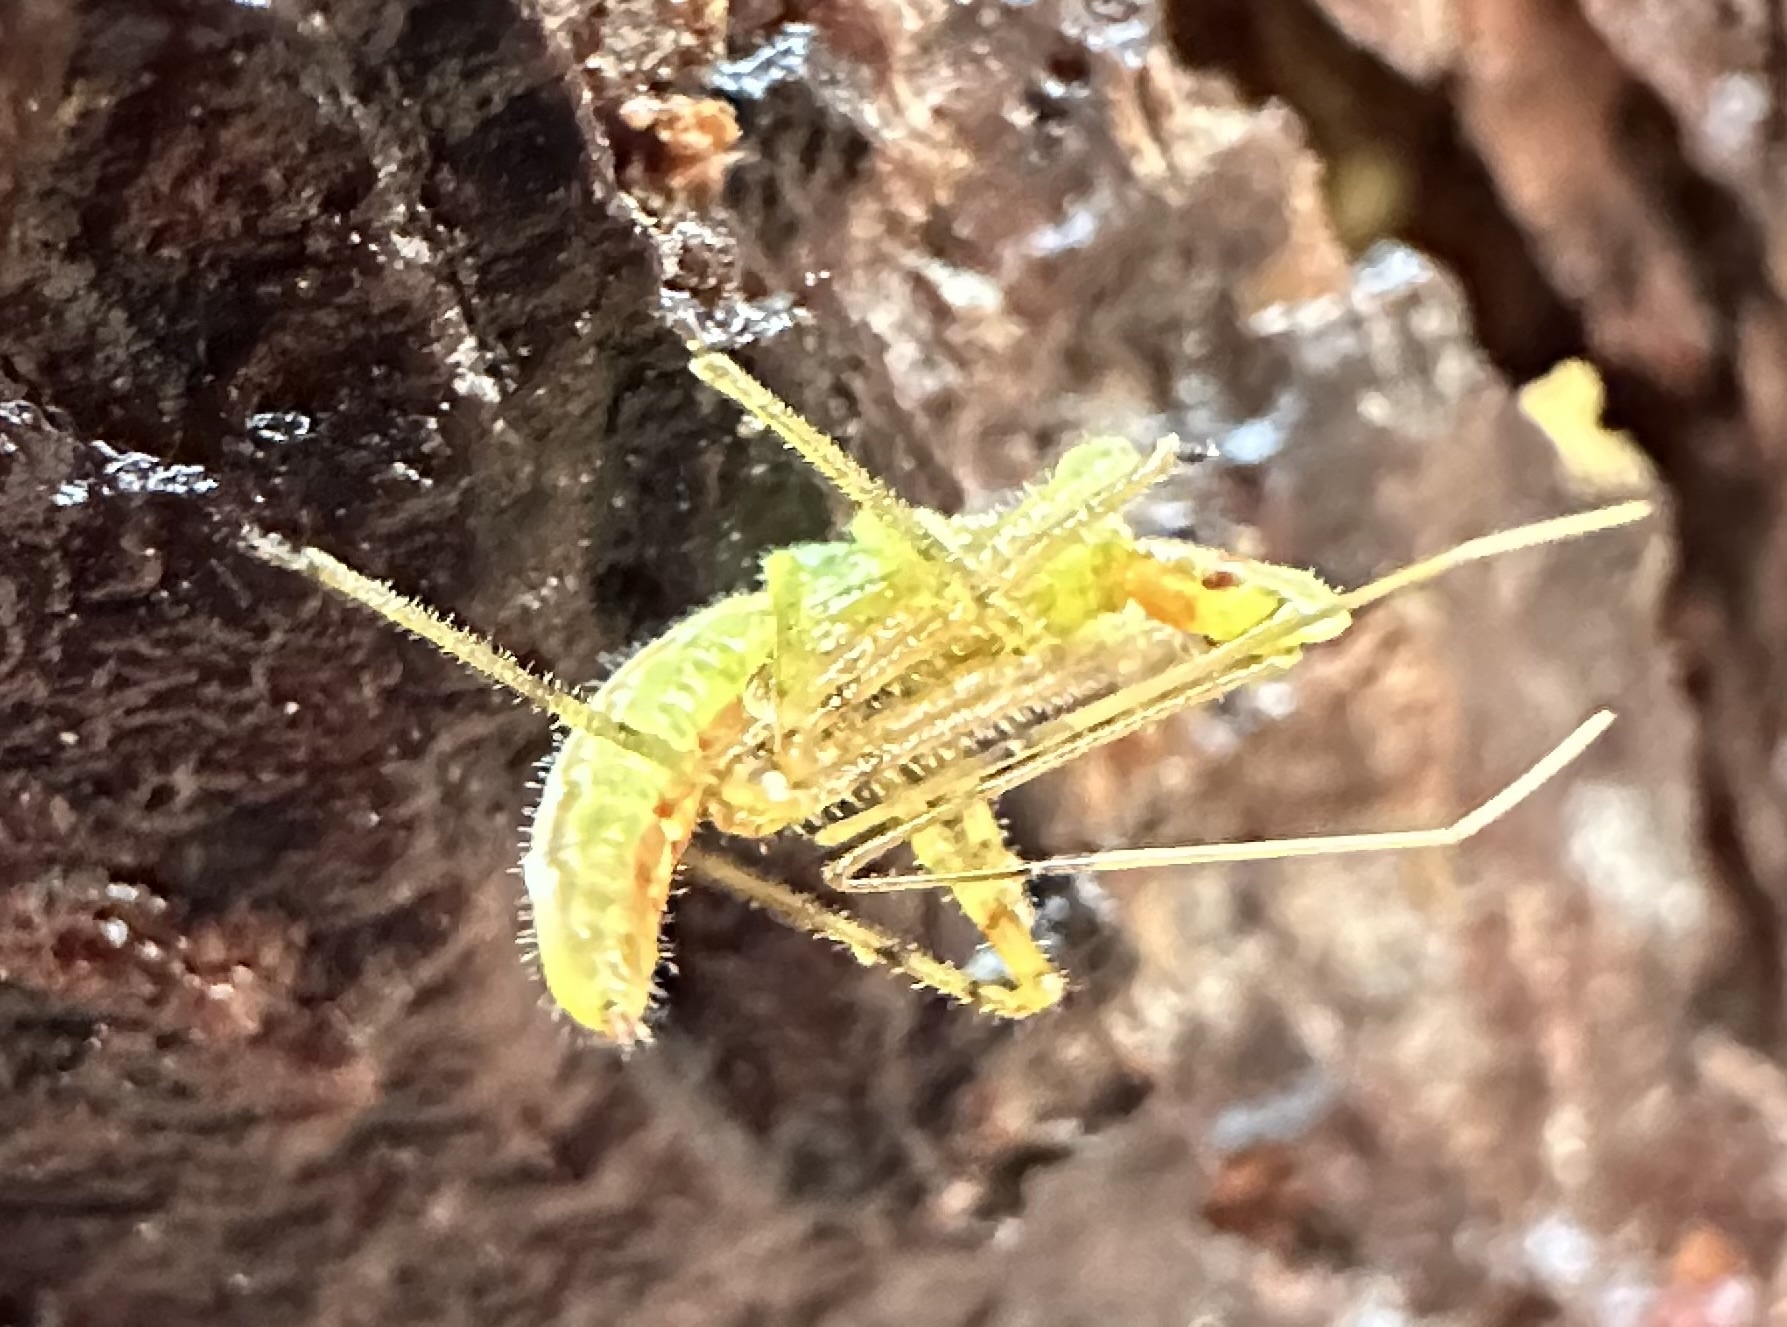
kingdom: Animalia
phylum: Arthropoda
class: Insecta
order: Hemiptera
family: Reduviidae
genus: Zelus
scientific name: Zelus luridus
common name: Pale green assassin bug
